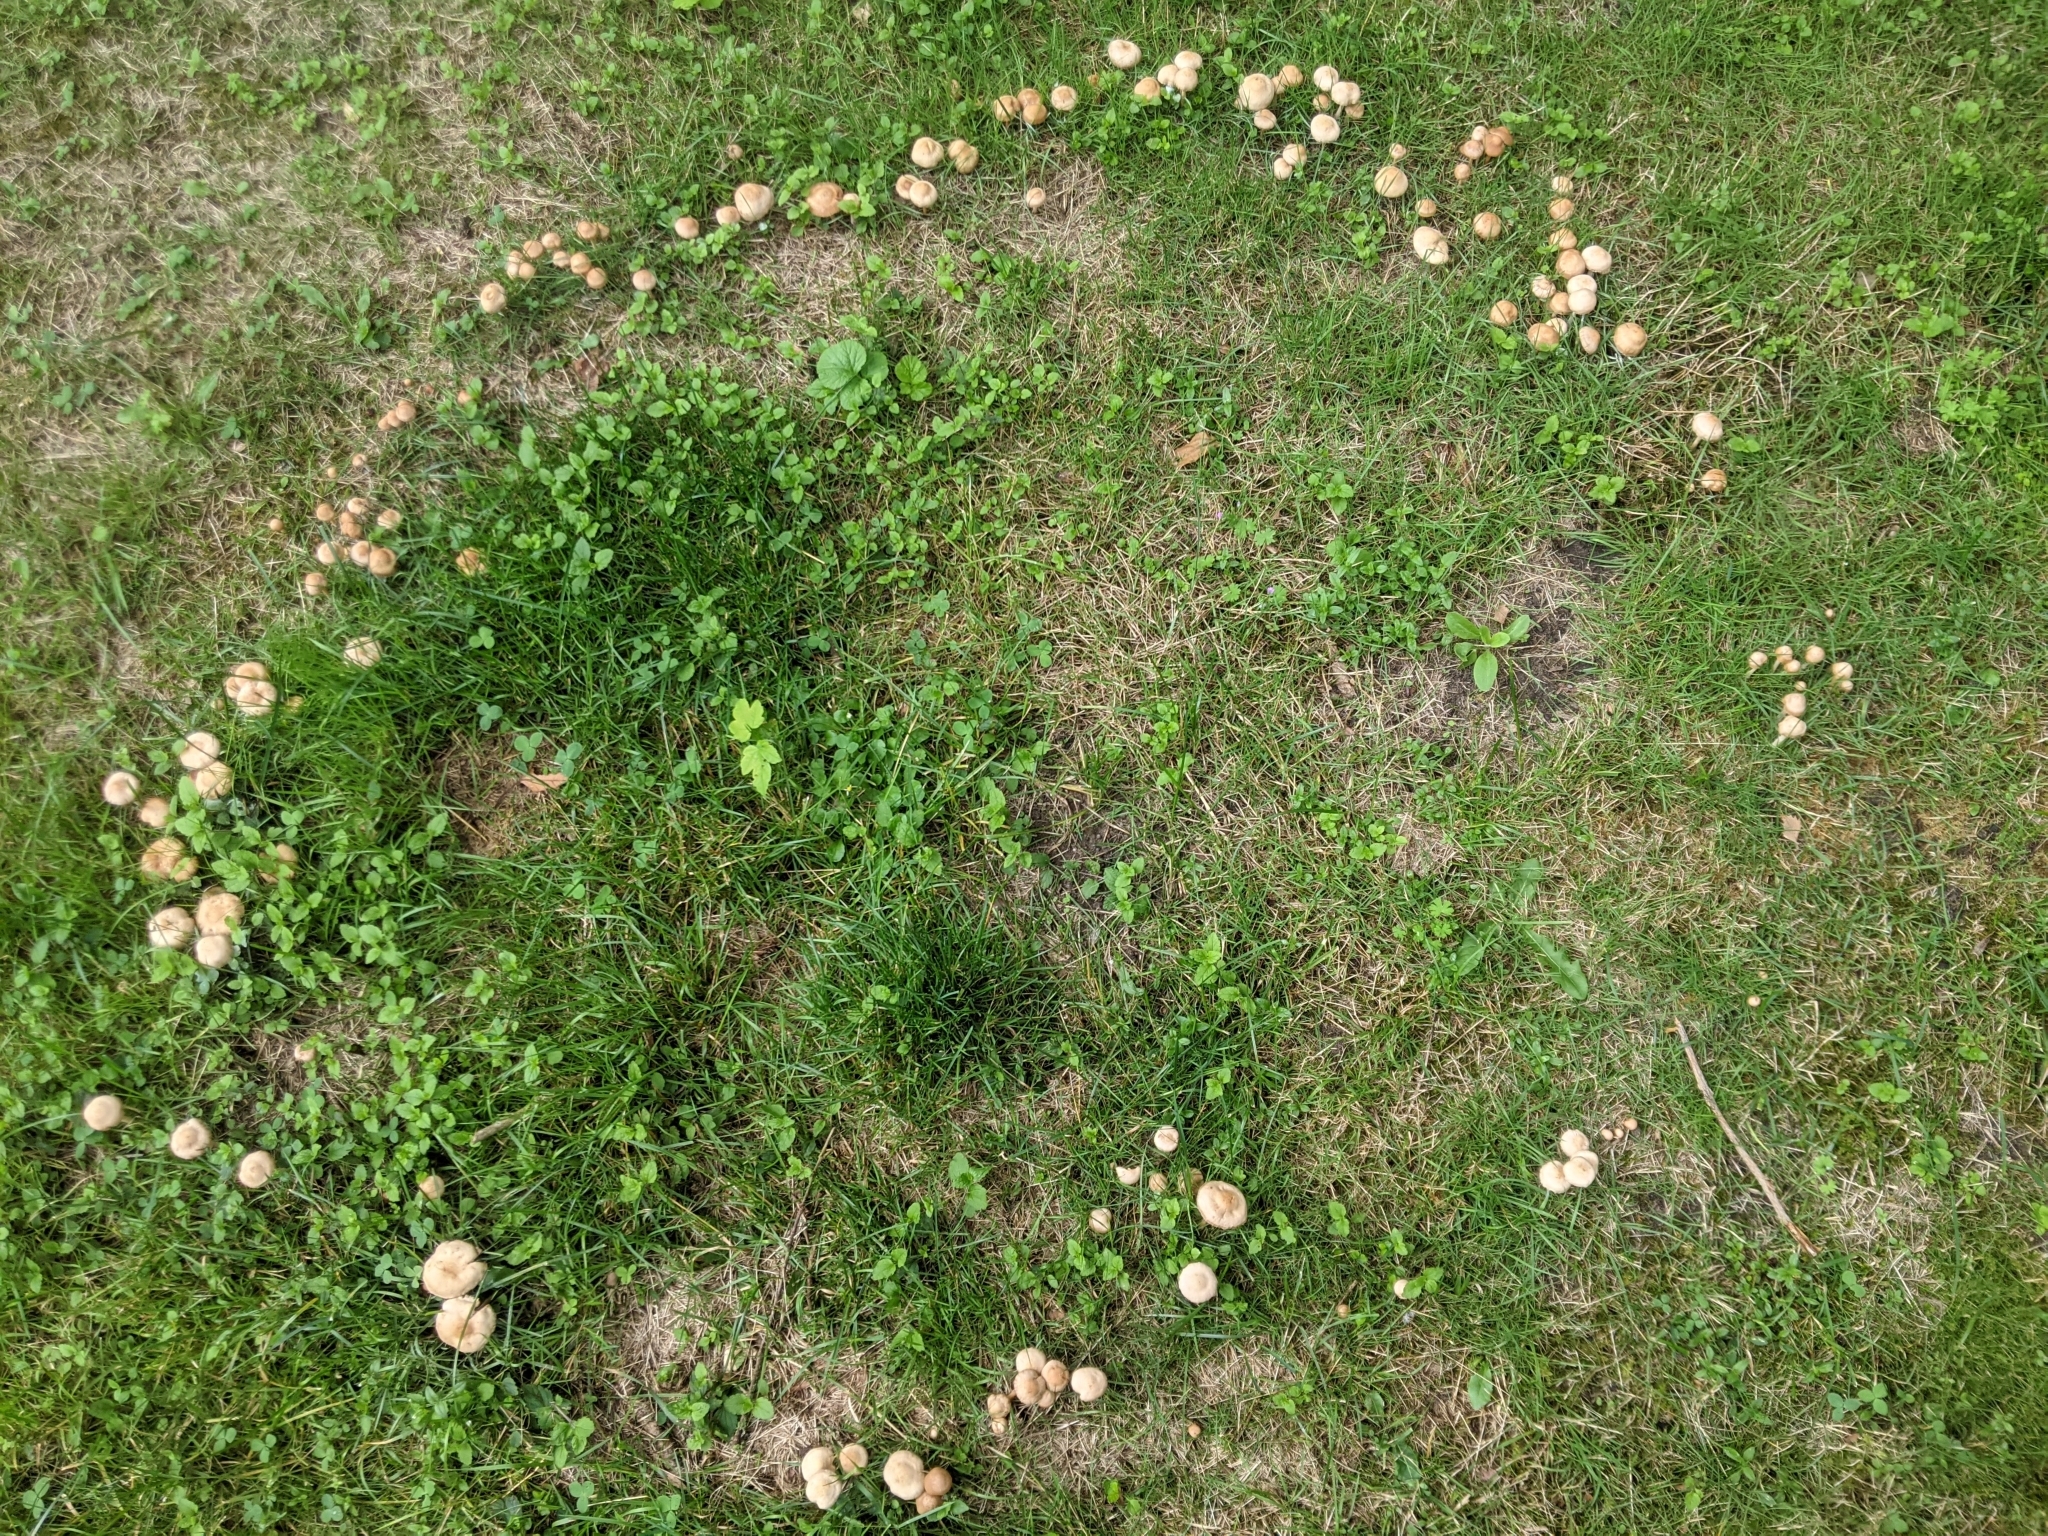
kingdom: Fungi
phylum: Basidiomycota
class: Agaricomycetes
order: Agaricales
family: Marasmiaceae
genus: Marasmius
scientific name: Marasmius oreades
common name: Fairy ring champignon
